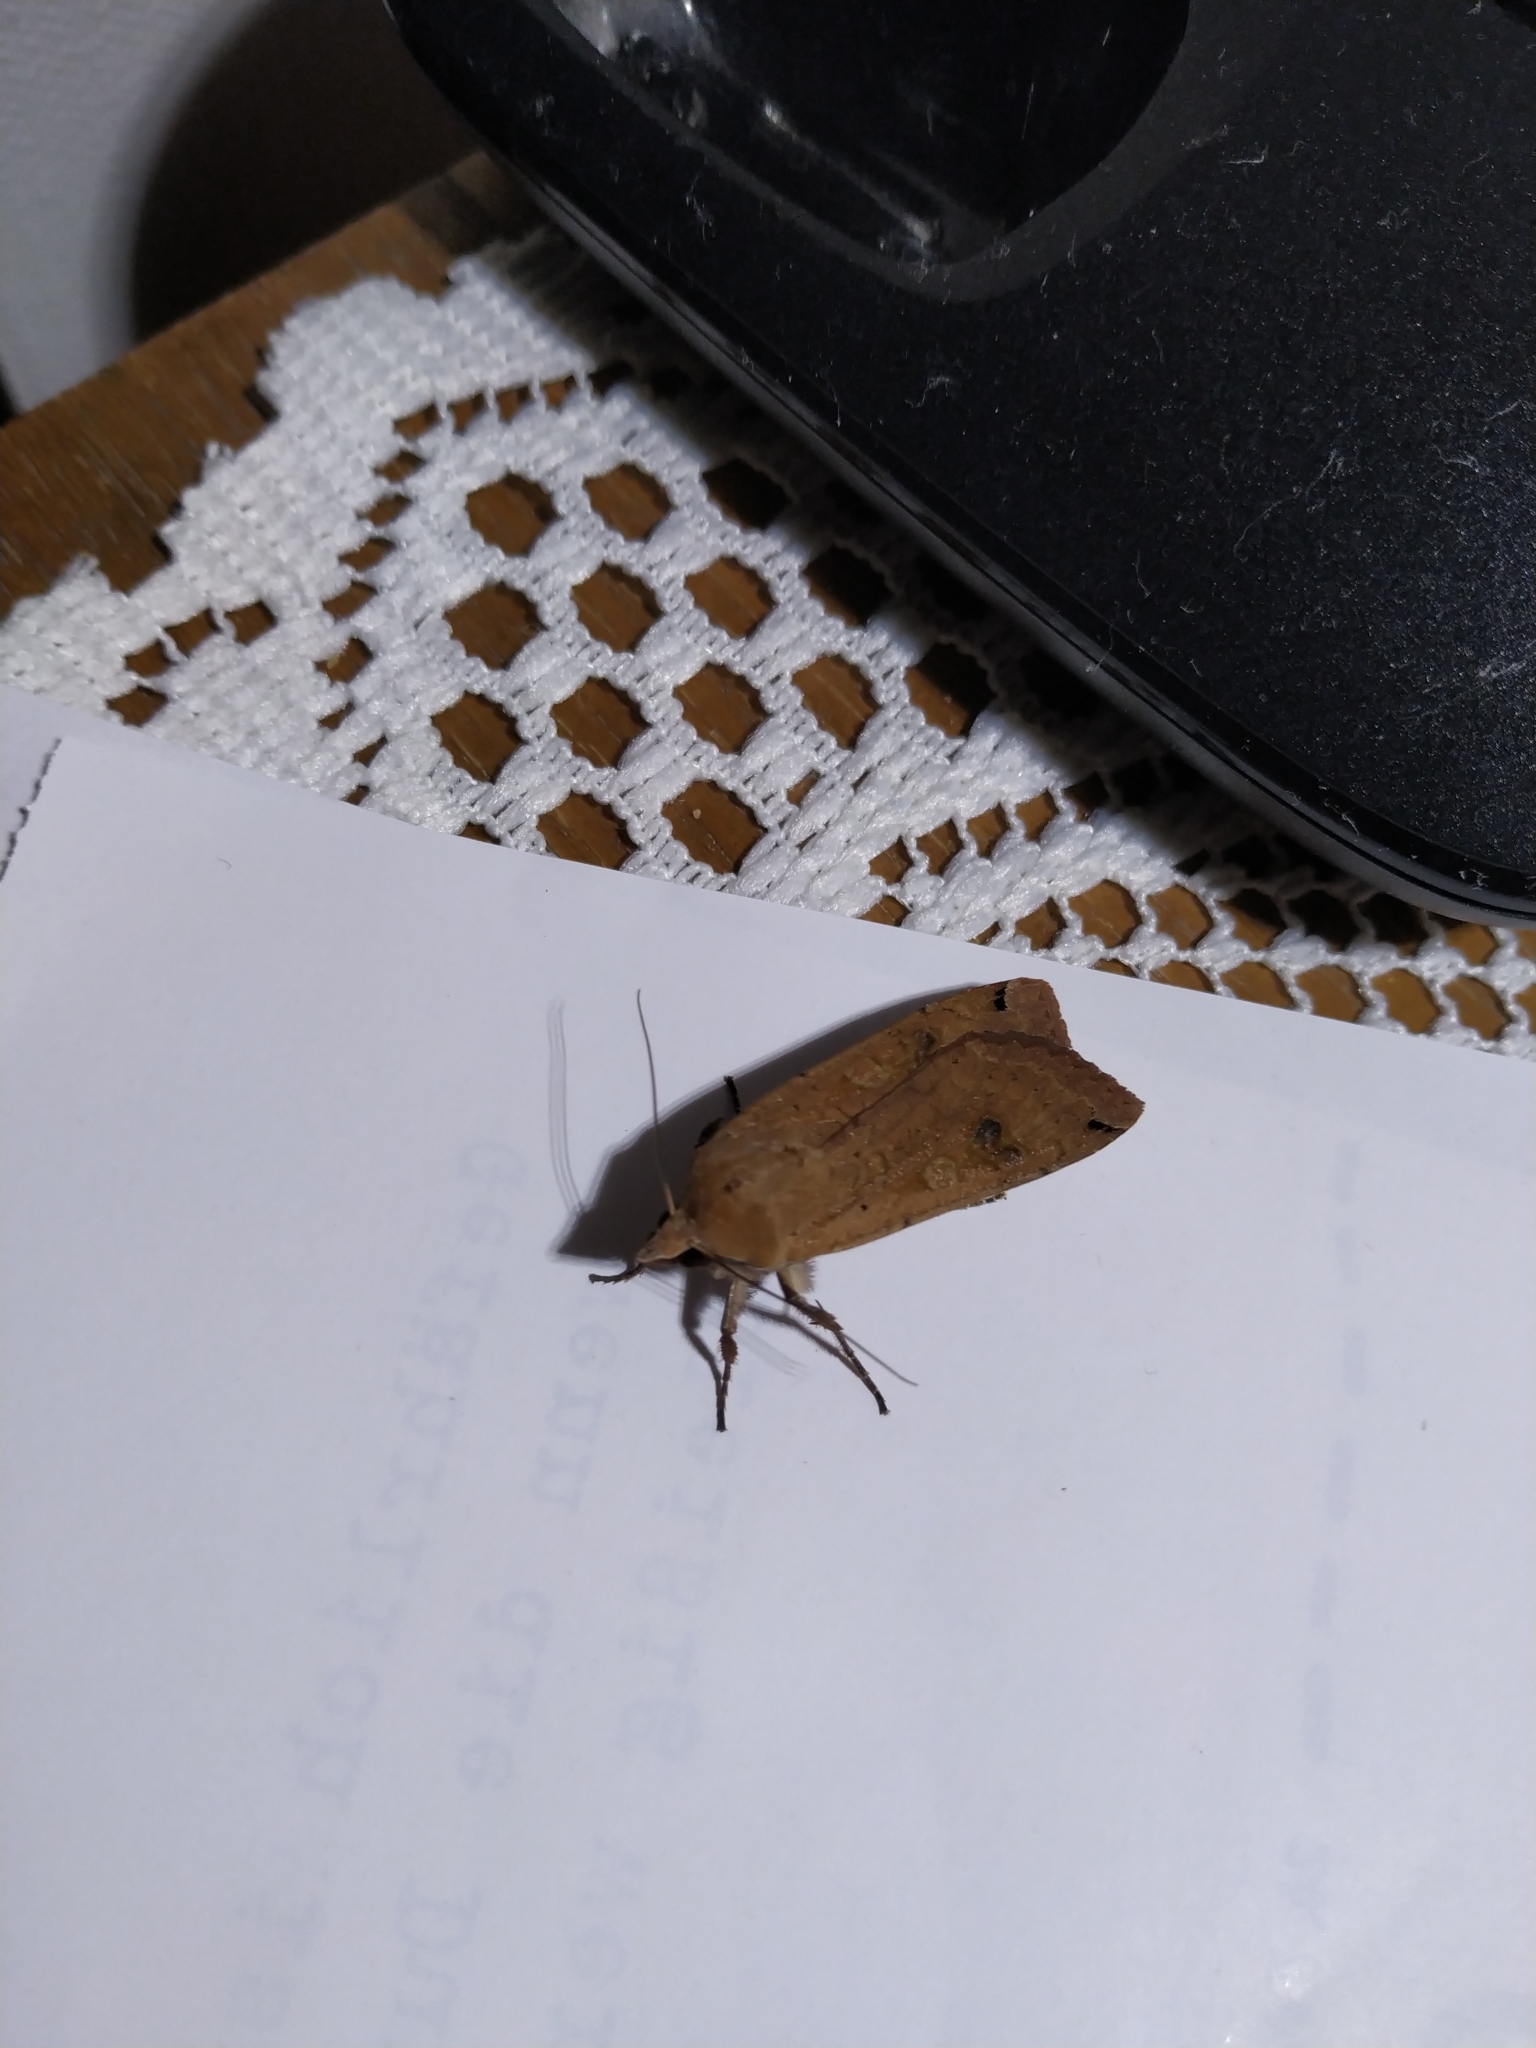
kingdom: Animalia
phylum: Arthropoda
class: Insecta
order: Lepidoptera
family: Noctuidae
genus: Noctua
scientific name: Noctua pronuba
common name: Large yellow underwing
